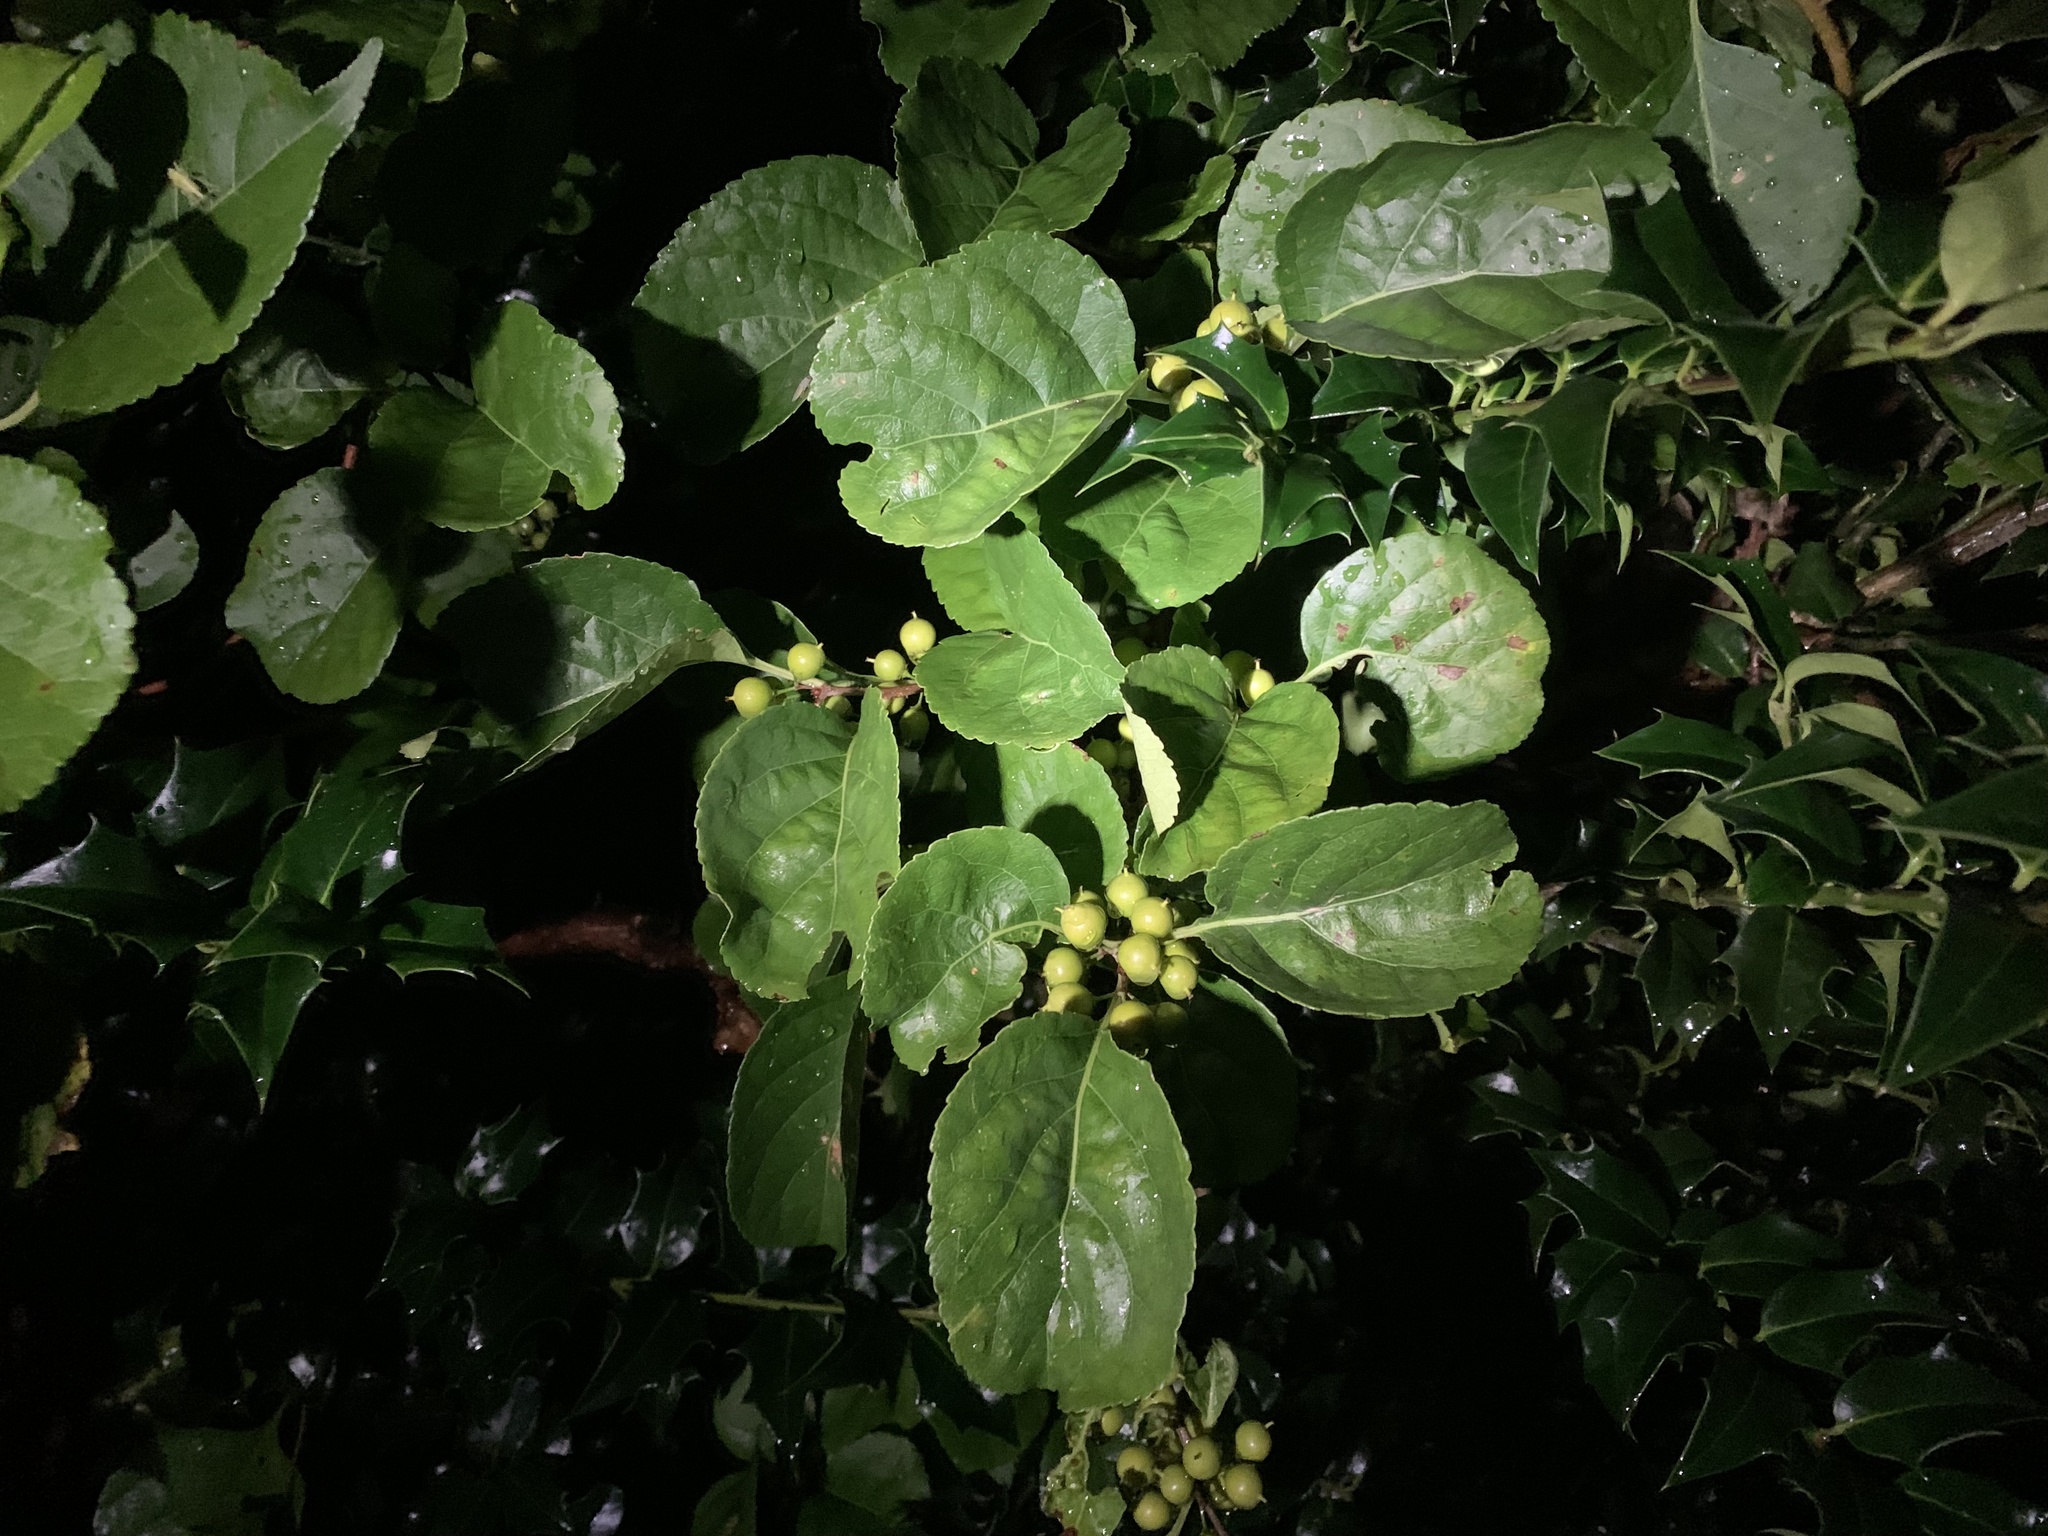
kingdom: Plantae
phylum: Tracheophyta
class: Magnoliopsida
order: Celastrales
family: Celastraceae
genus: Celastrus
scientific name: Celastrus orbiculatus
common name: Oriental bittersweet
